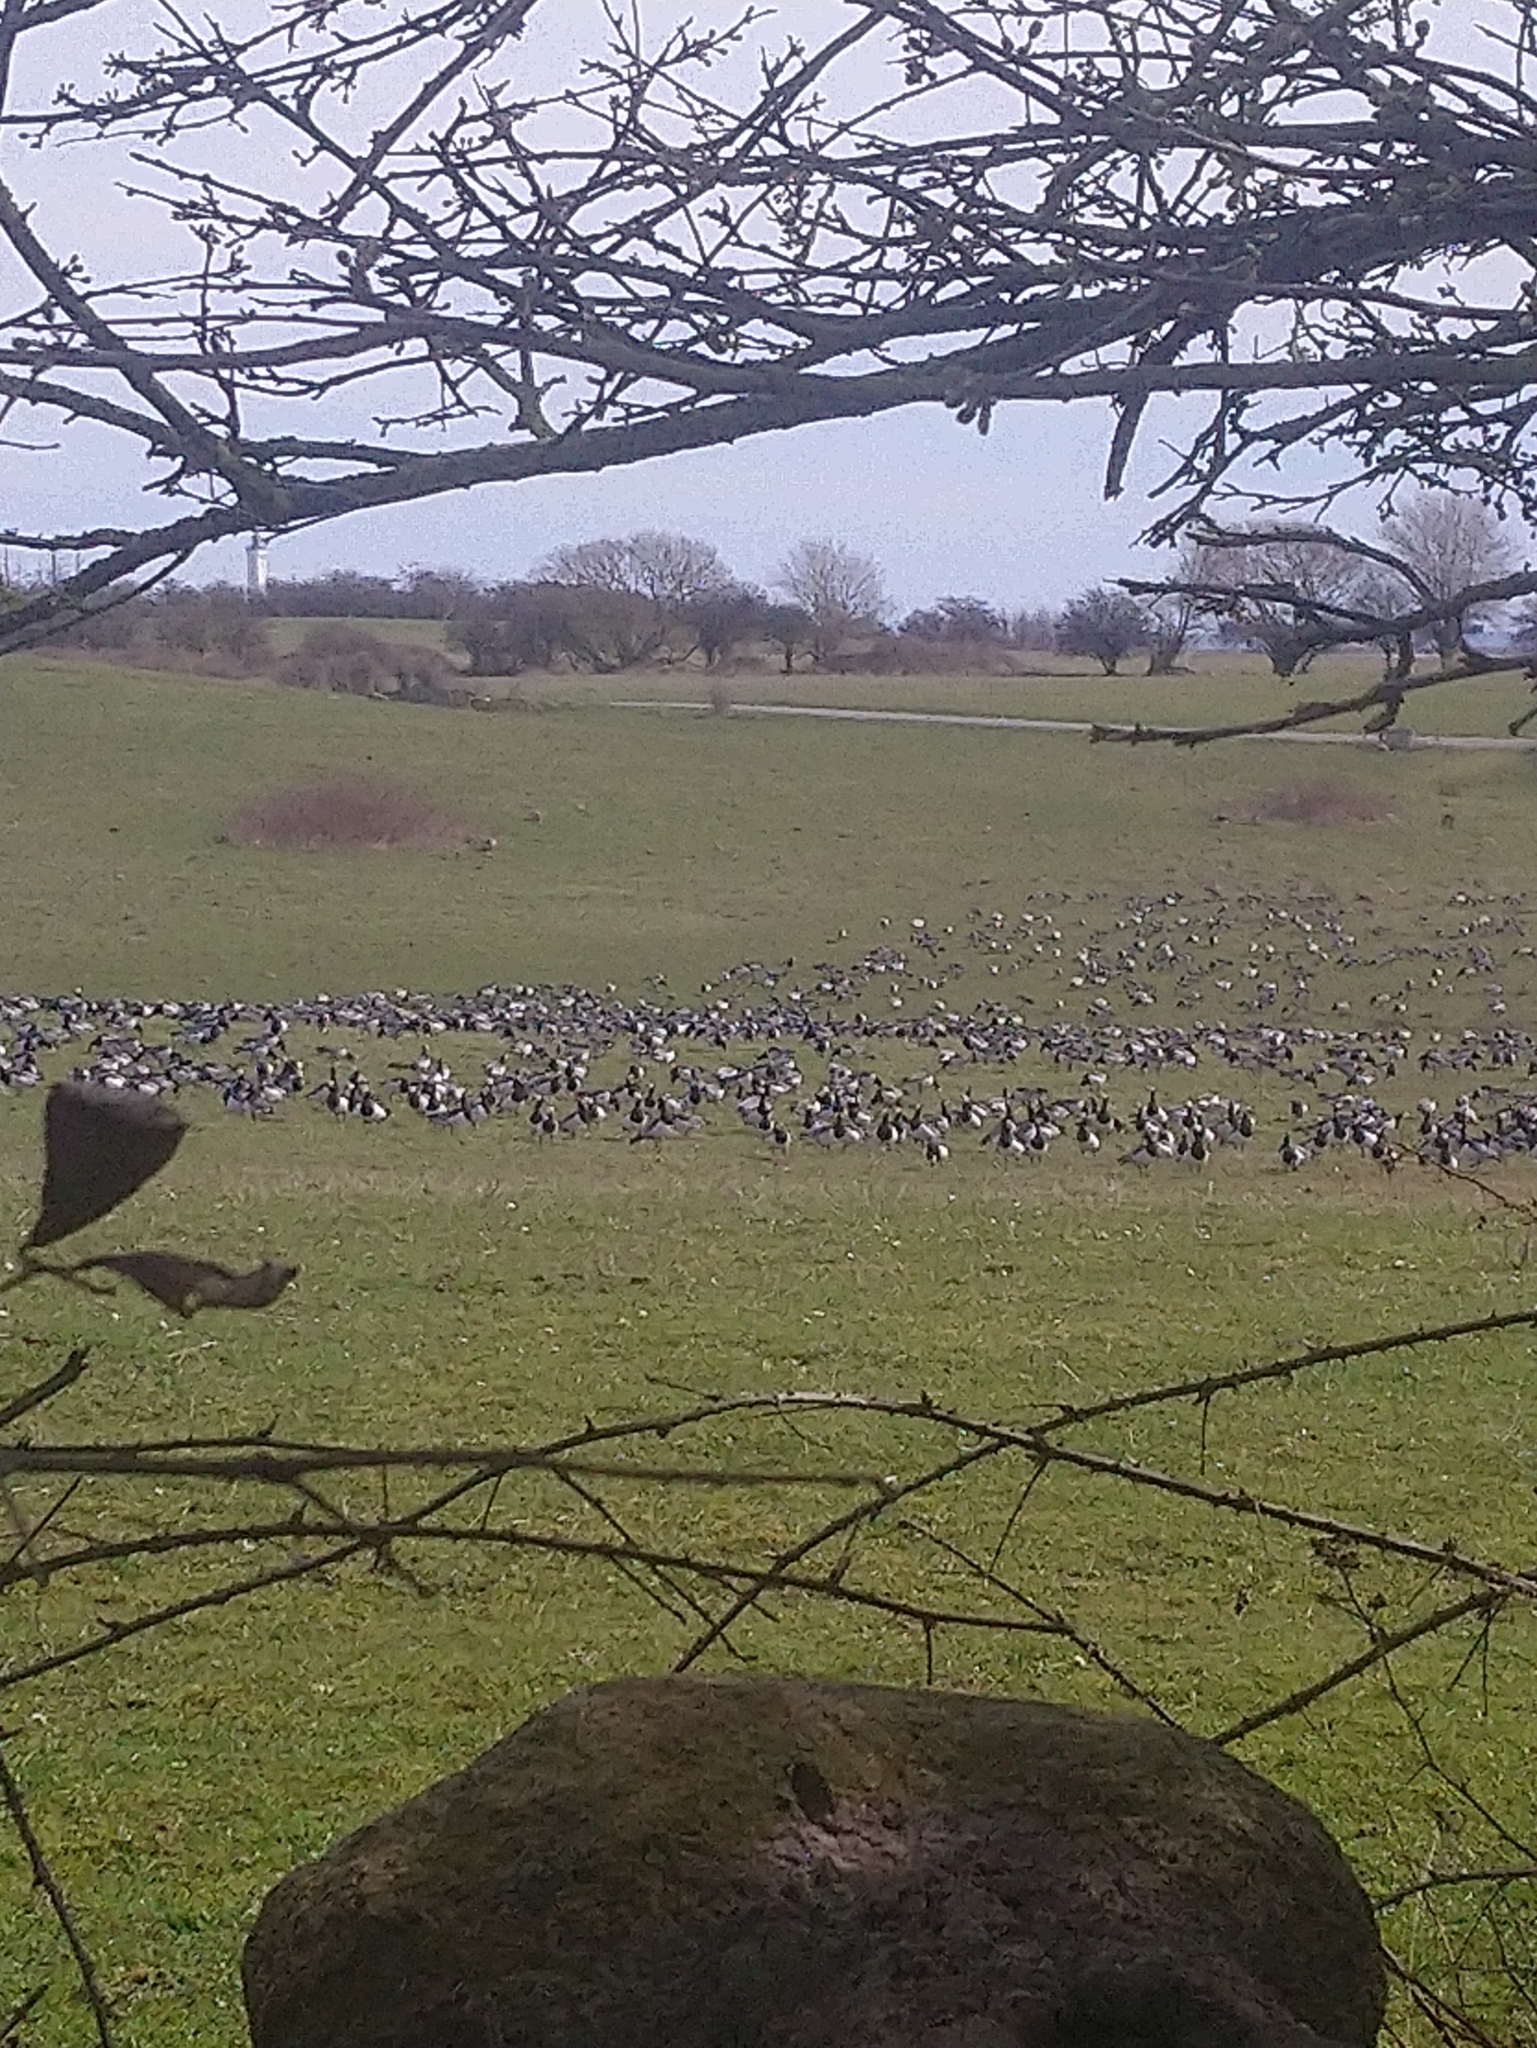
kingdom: Animalia
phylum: Chordata
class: Aves
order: Anseriformes
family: Anatidae
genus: Branta
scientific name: Branta leucopsis
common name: Barnacle goose
